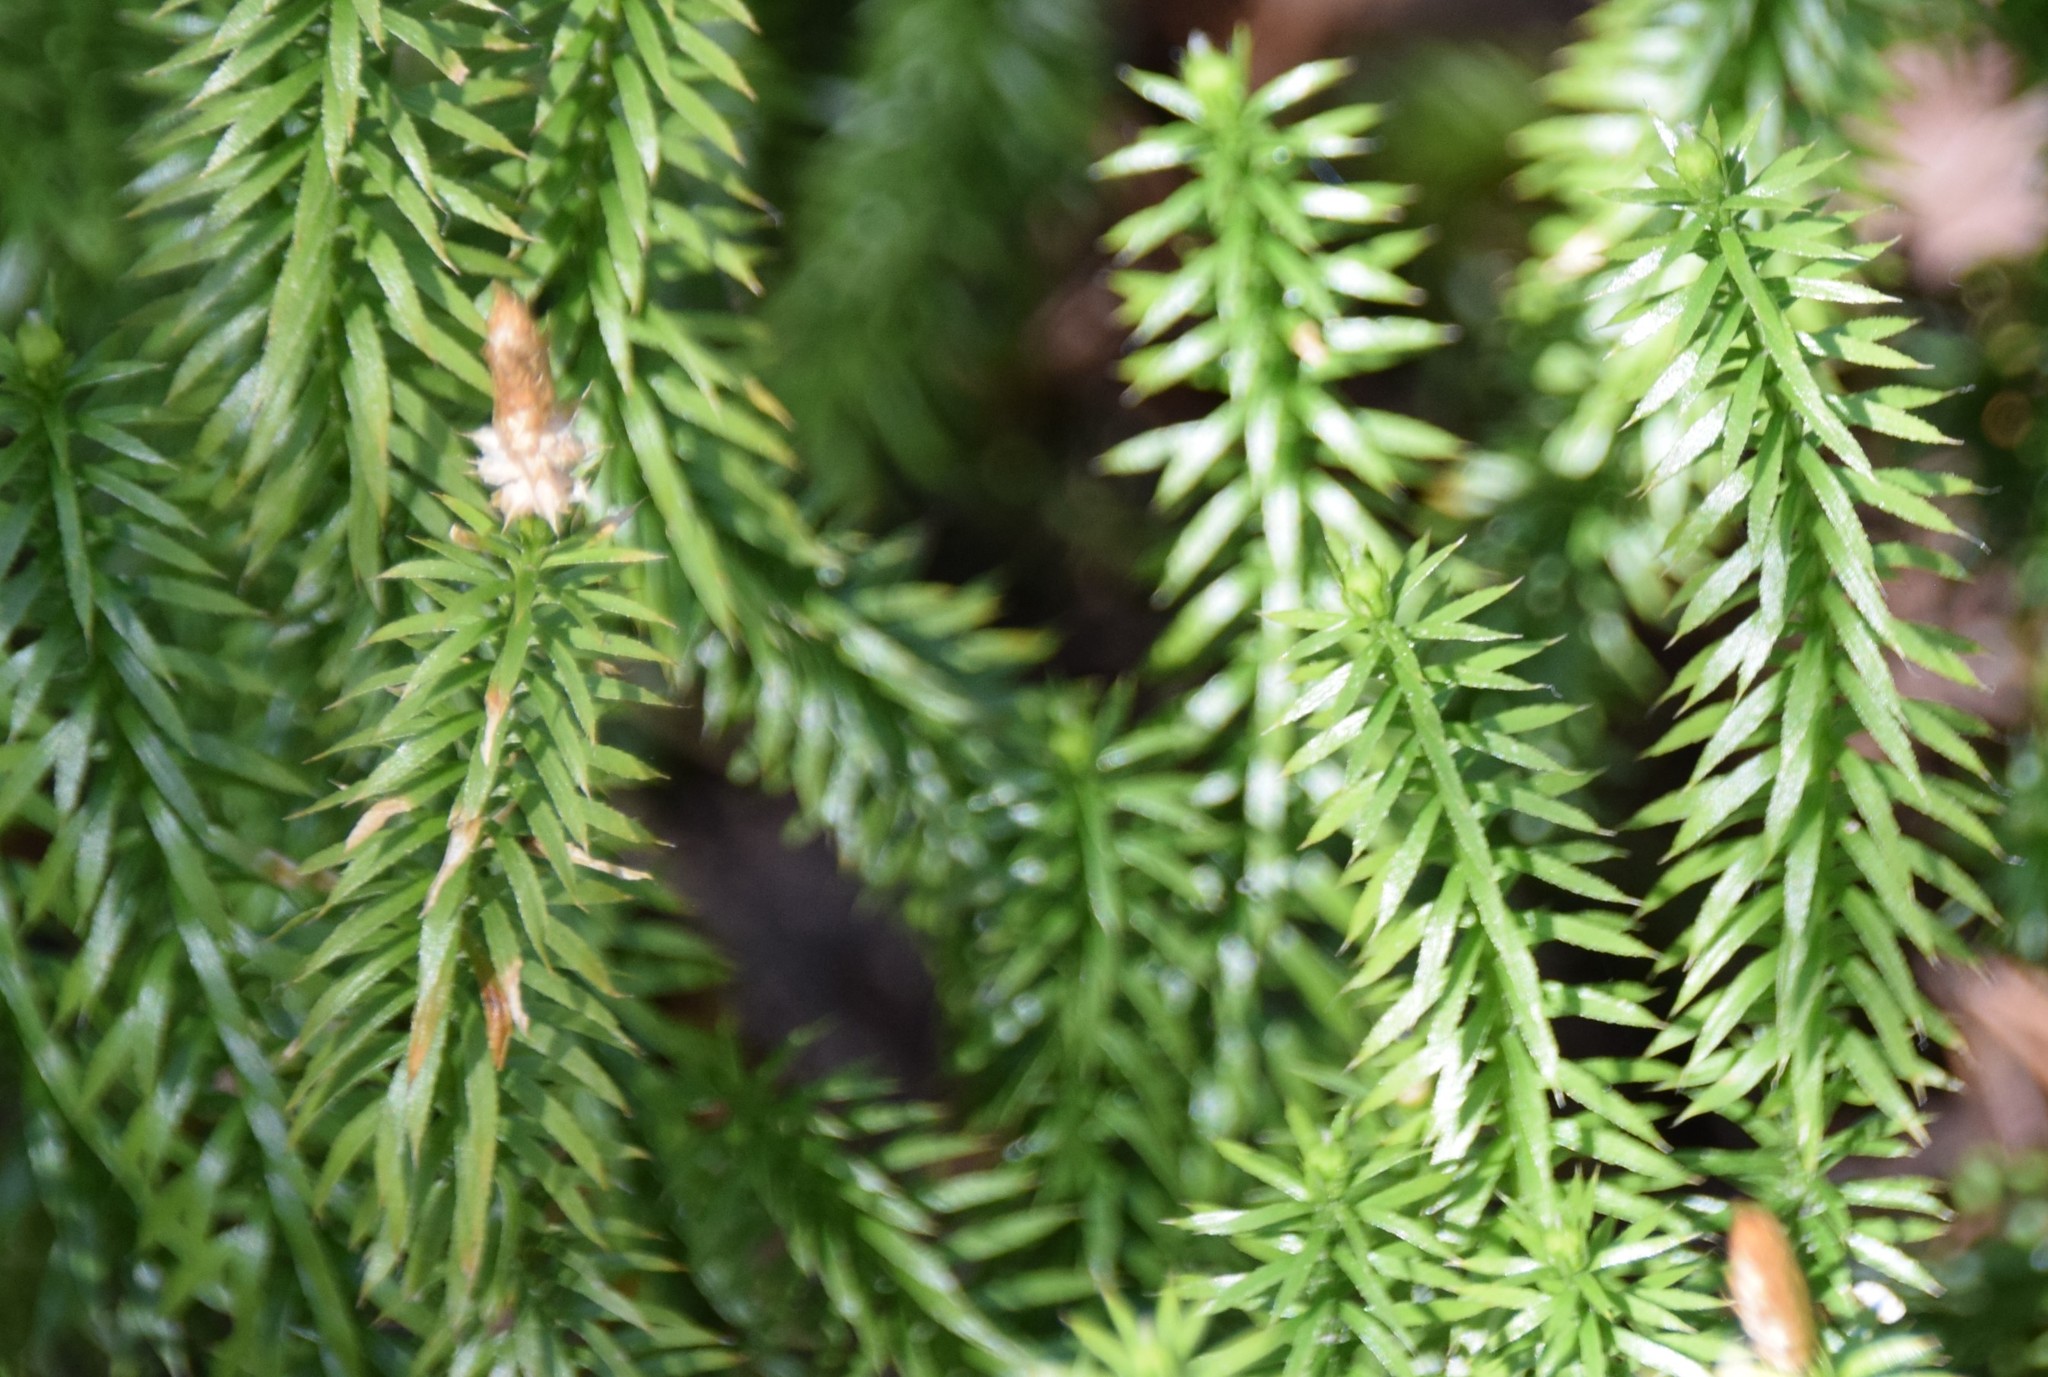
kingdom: Plantae
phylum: Tracheophyta
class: Lycopodiopsida
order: Lycopodiales
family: Lycopodiaceae
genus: Spinulum
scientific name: Spinulum annotinum
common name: Interrupted club-moss
